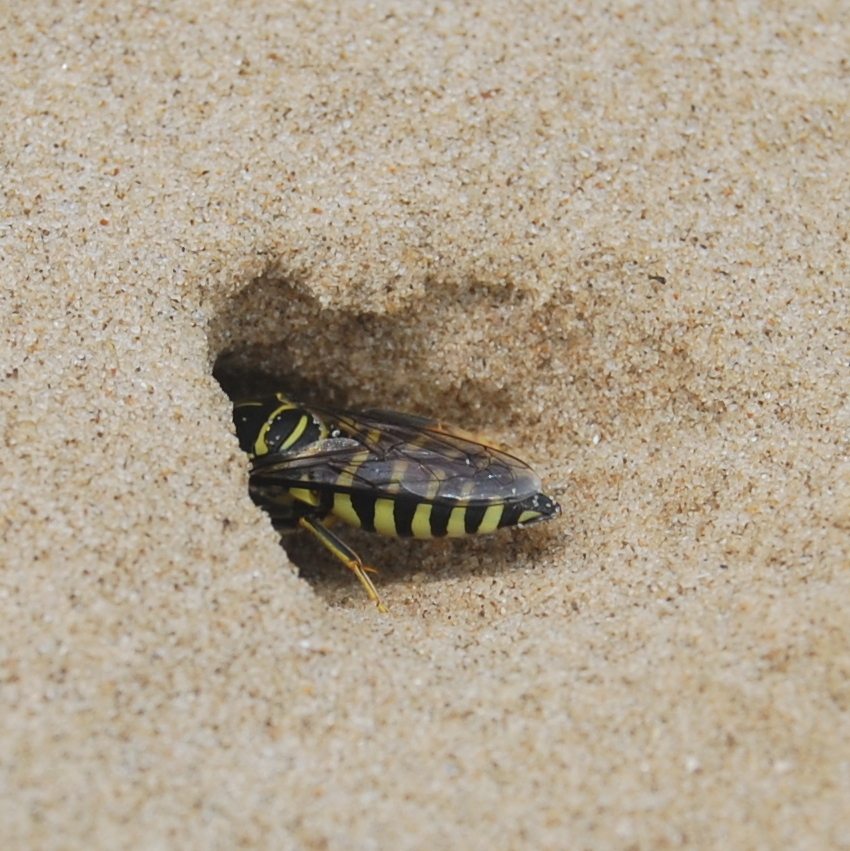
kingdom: Animalia
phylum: Arthropoda
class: Insecta
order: Hymenoptera
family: Crabronidae
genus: Bicyrtes
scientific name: Bicyrtes variegatus
